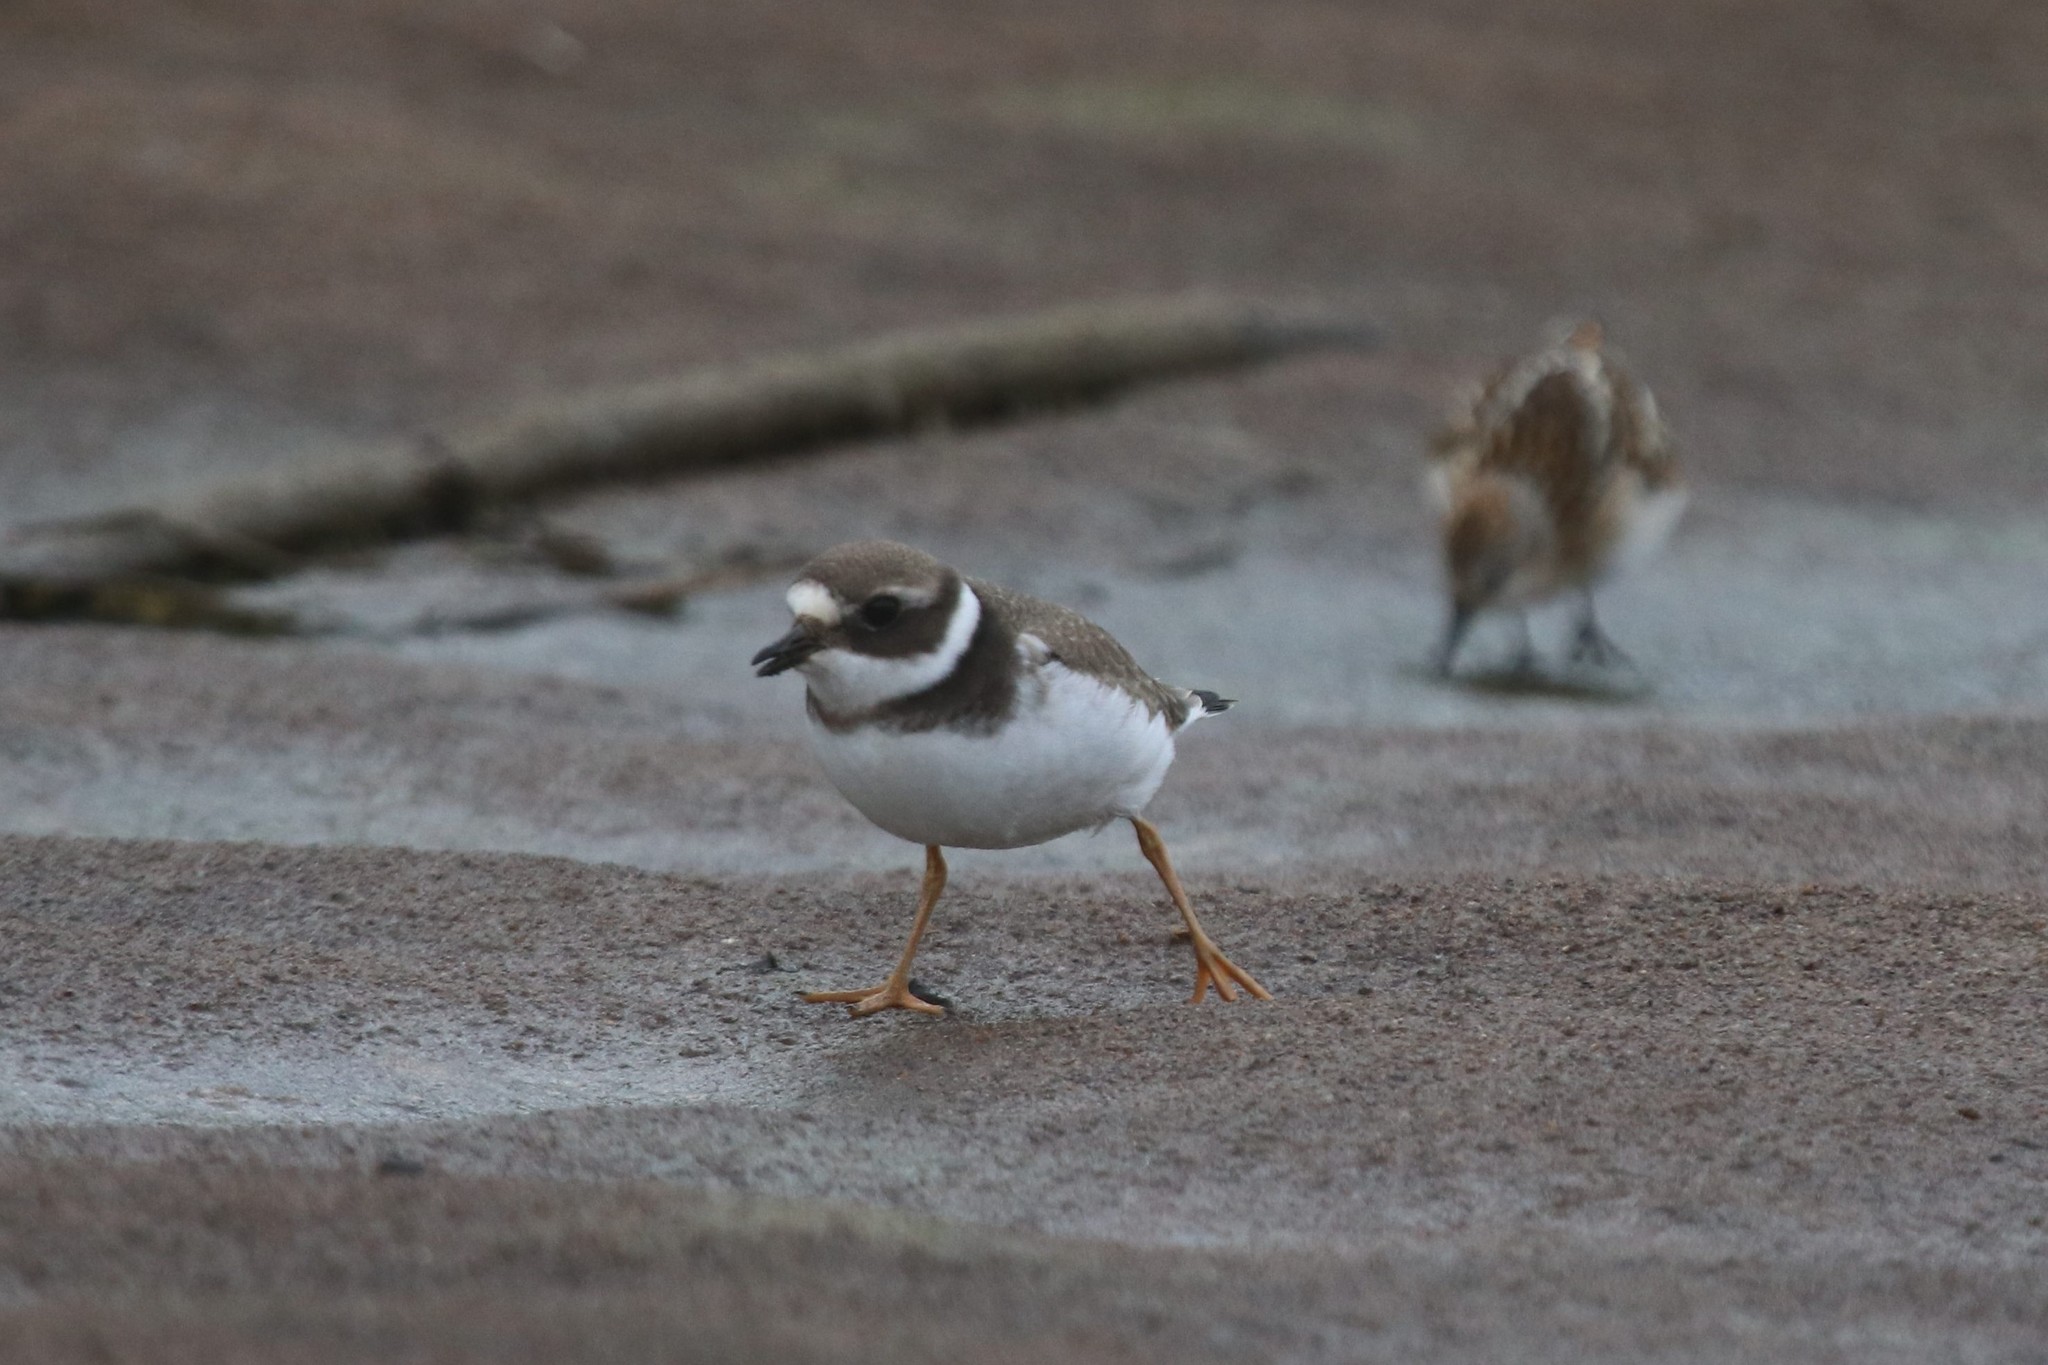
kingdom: Animalia
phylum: Chordata
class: Aves
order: Charadriiformes
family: Charadriidae
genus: Charadrius
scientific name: Charadrius hiaticula
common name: Common ringed plover
